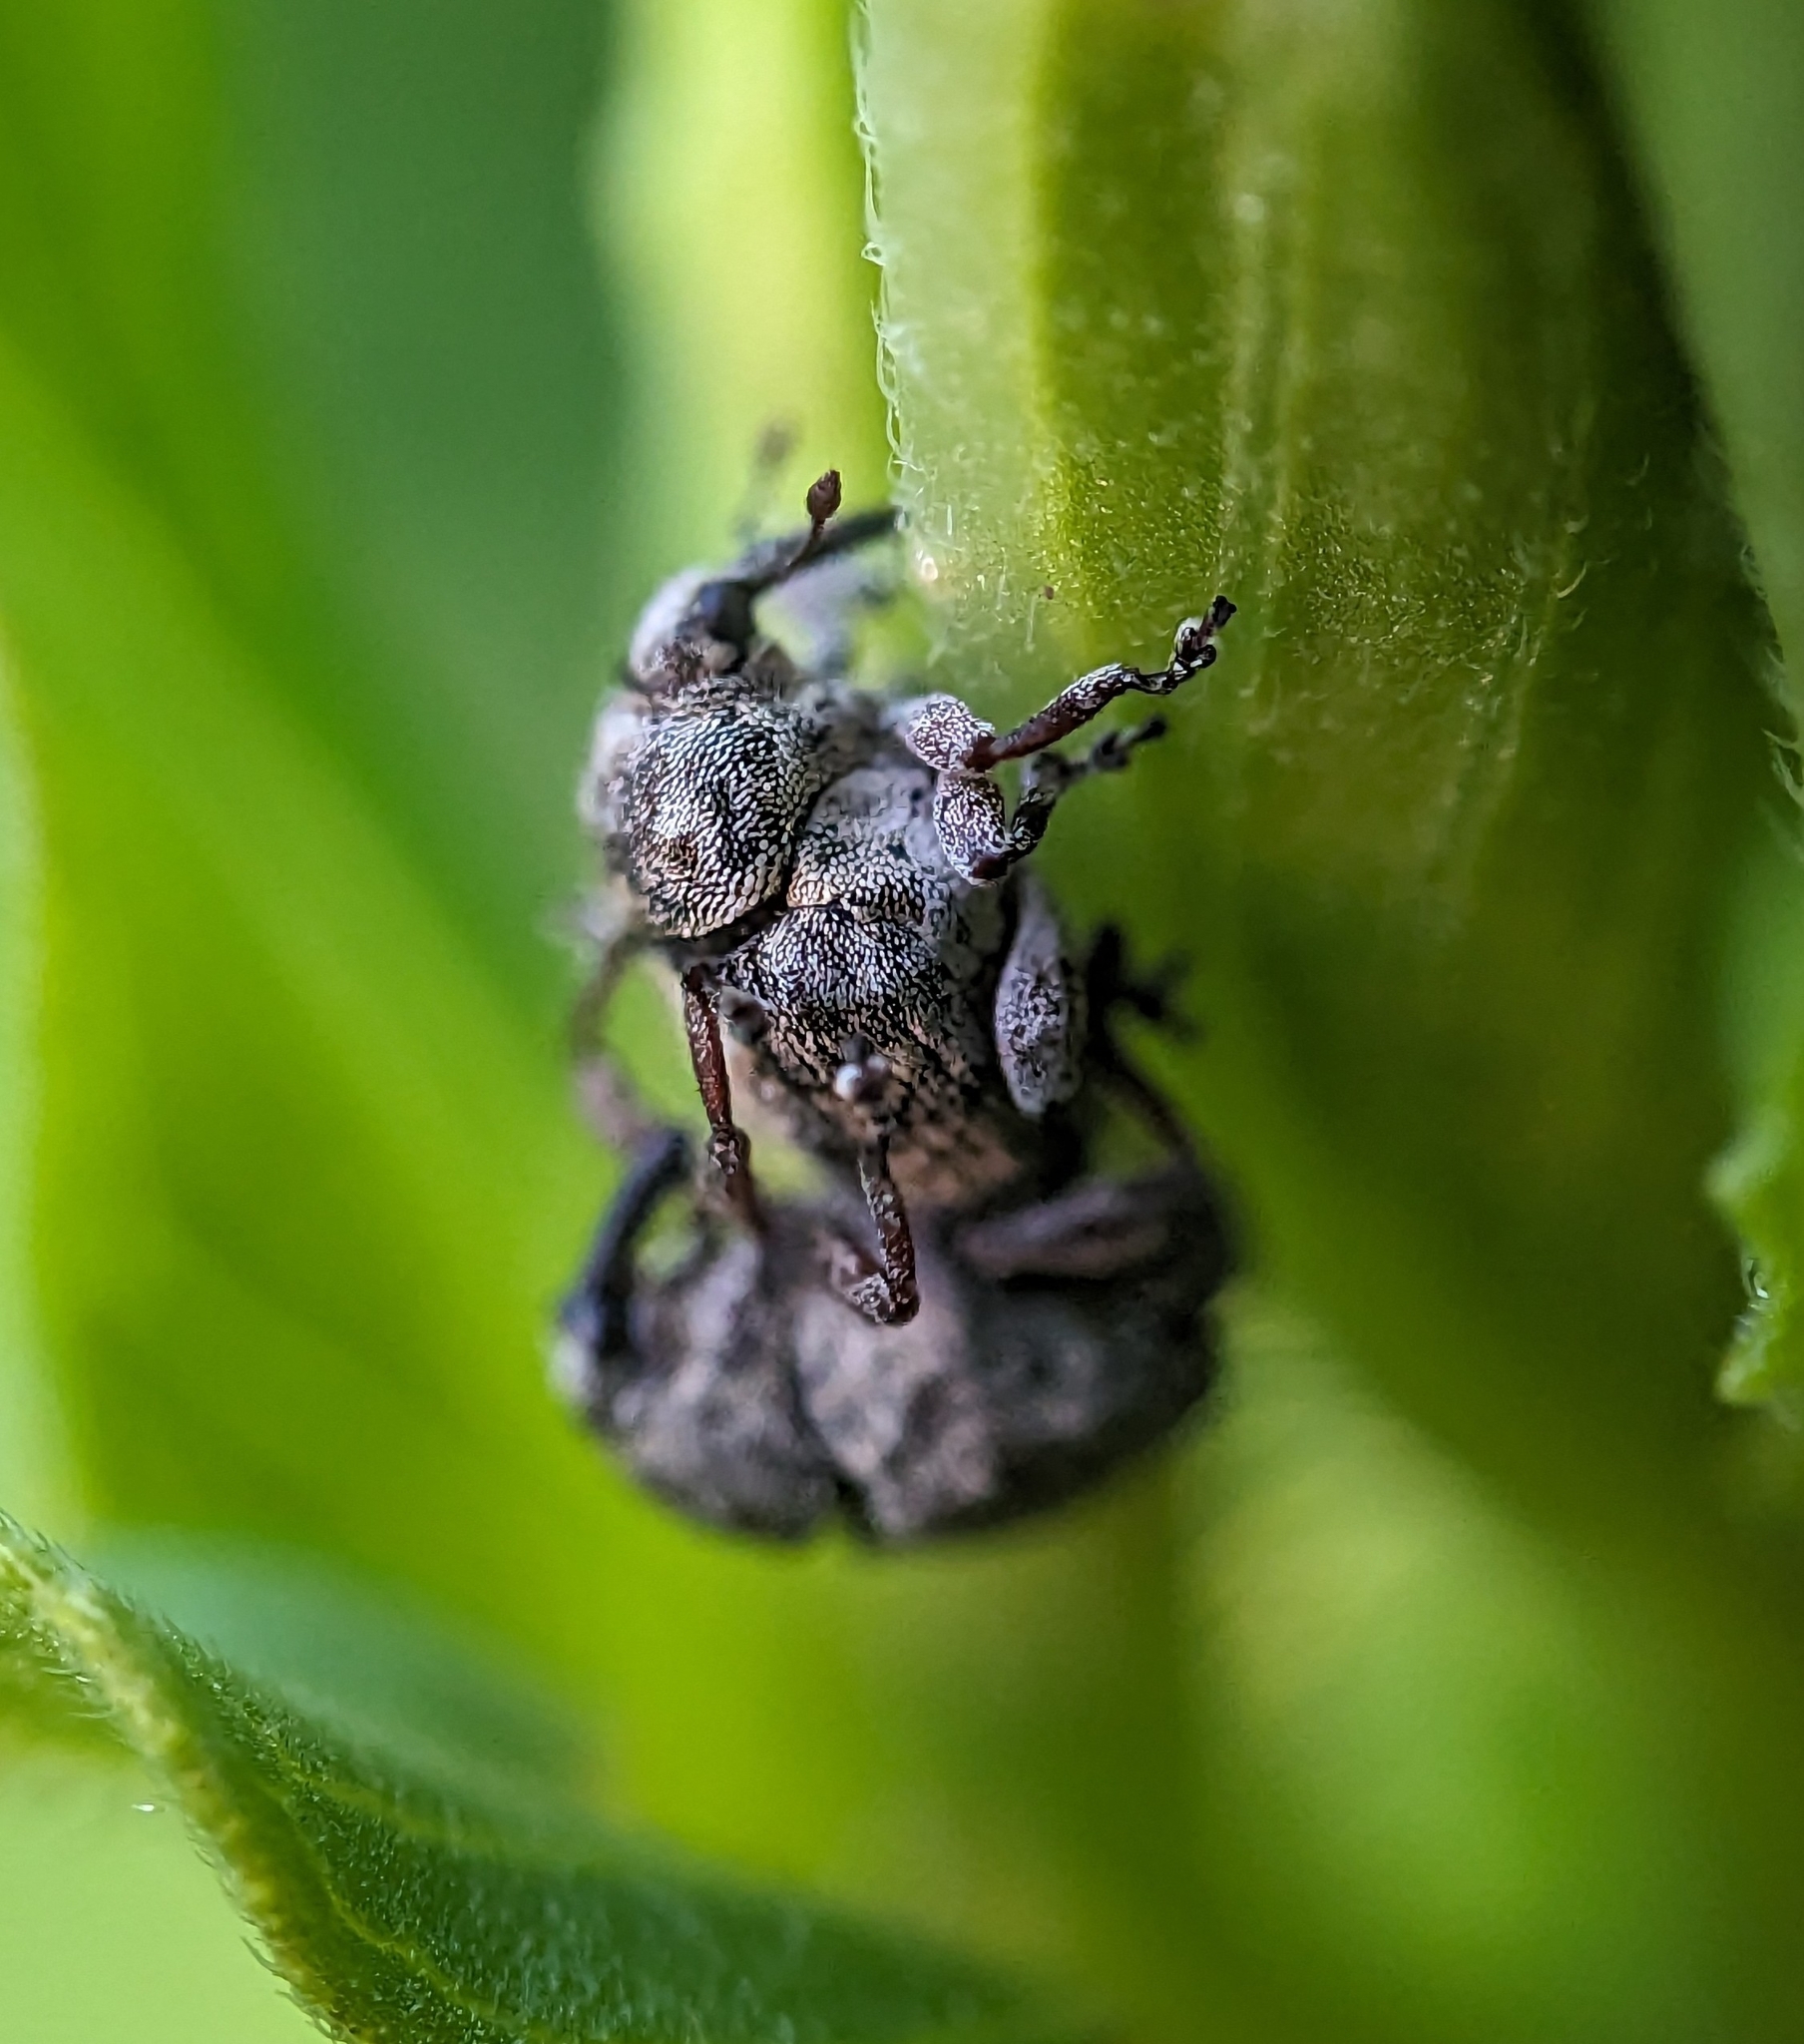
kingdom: Animalia
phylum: Arthropoda
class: Insecta
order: Coleoptera
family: Curculionidae
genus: Acanthoscelidius
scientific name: Acanthoscelidius acephalus
